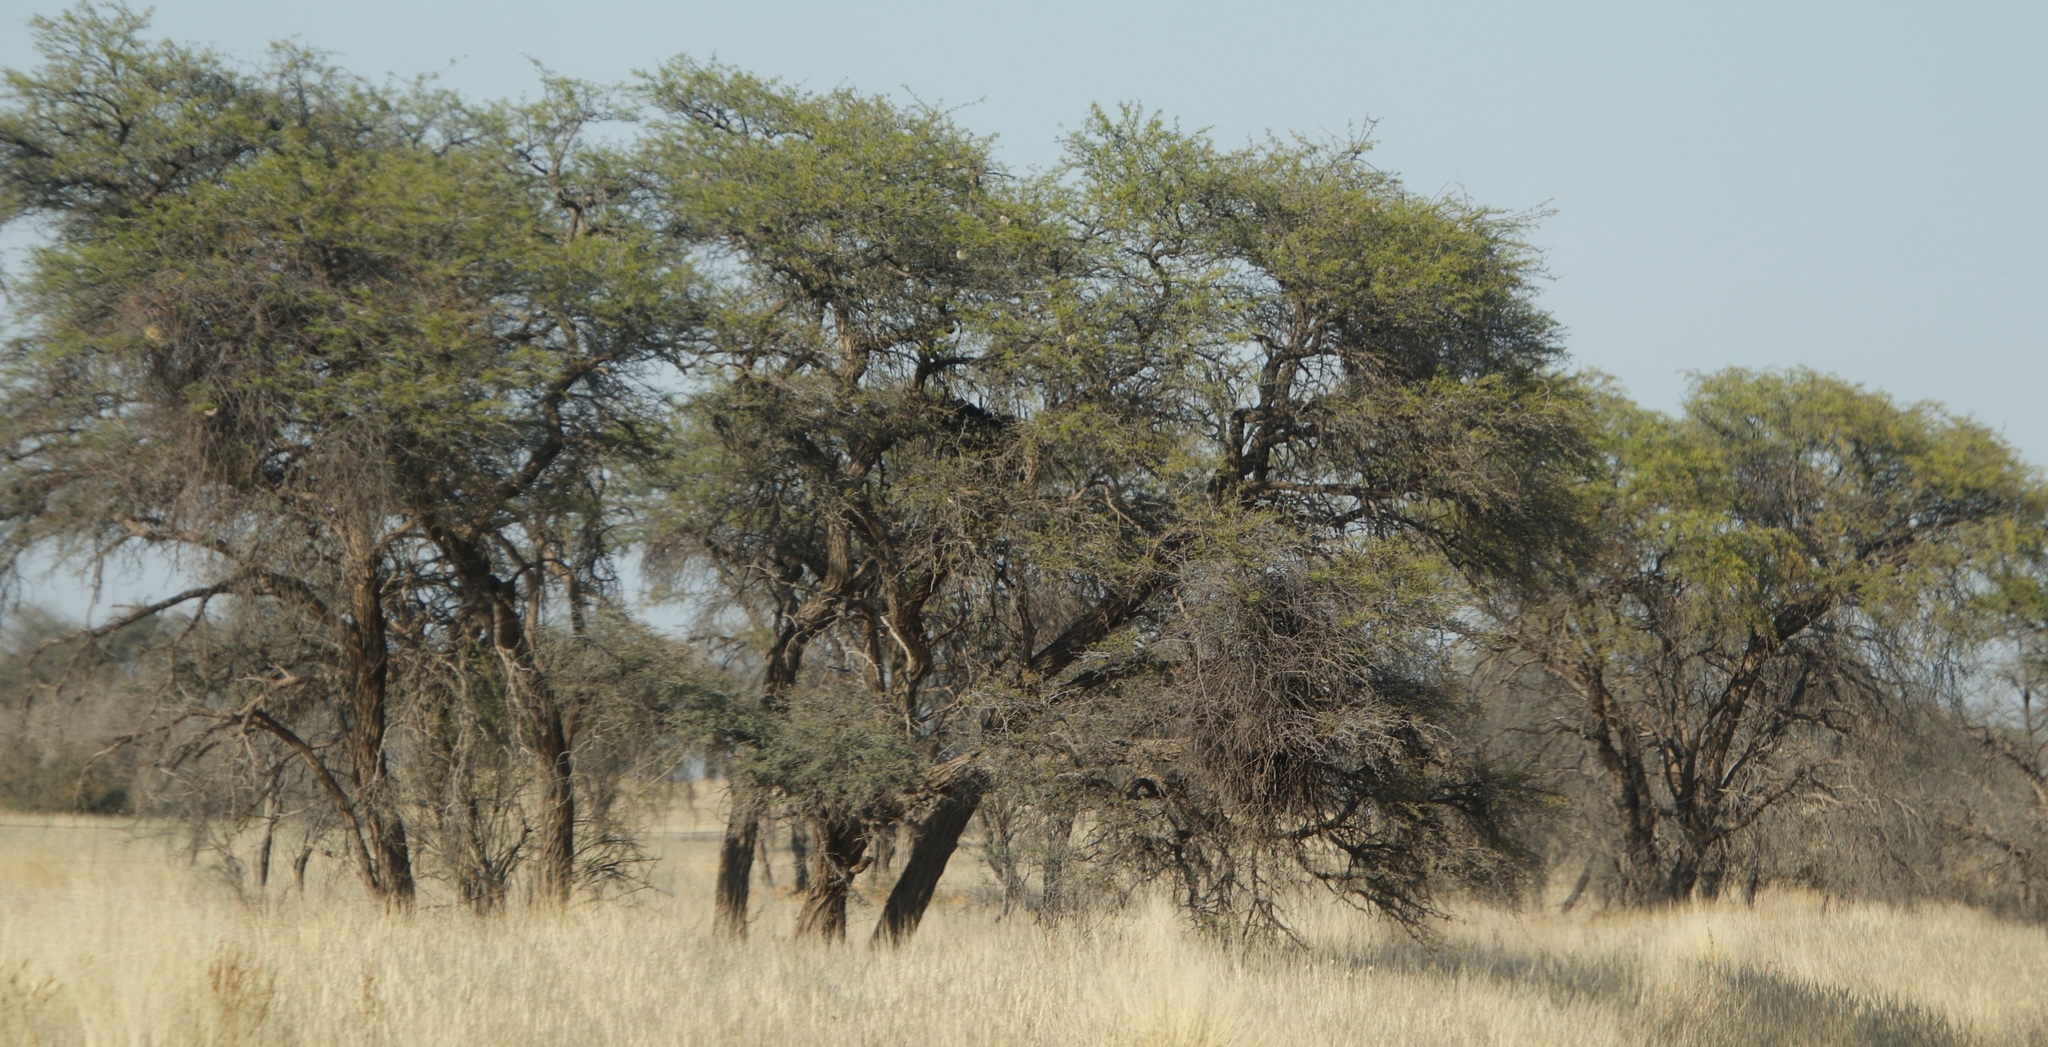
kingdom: Plantae
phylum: Tracheophyta
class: Magnoliopsida
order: Fabales
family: Fabaceae
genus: Vachellia
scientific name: Vachellia erioloba
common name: Camel thorn
